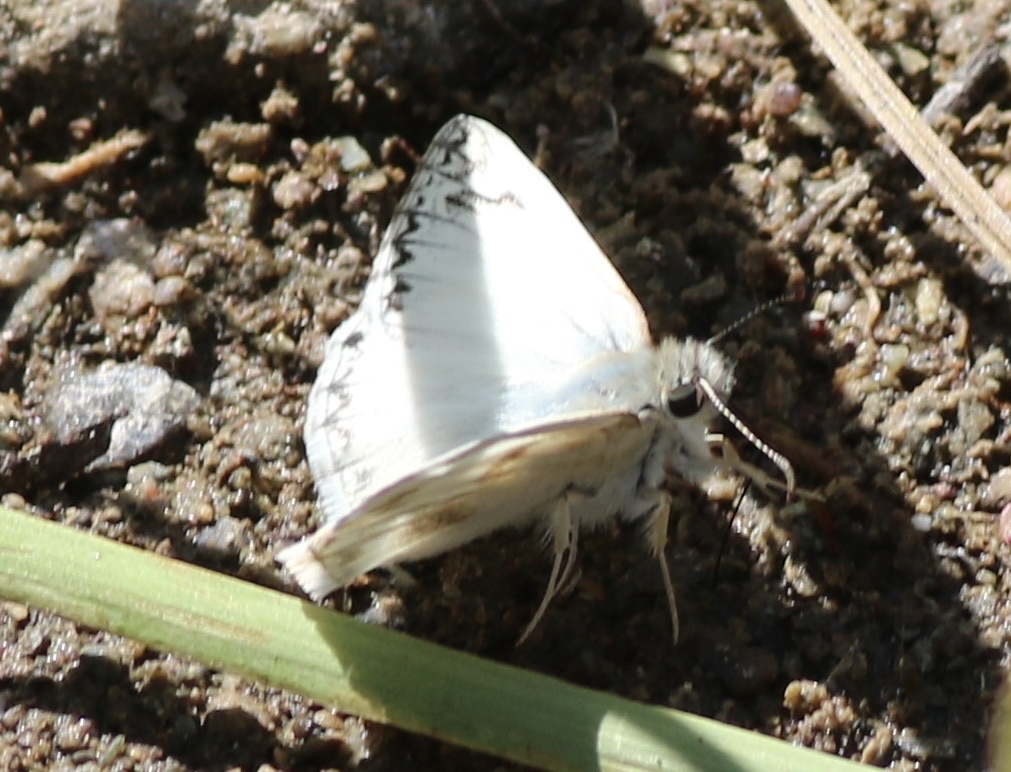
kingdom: Animalia
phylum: Arthropoda
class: Insecta
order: Lepidoptera
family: Hesperiidae
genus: Heliopetes
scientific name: Heliopetes ericetorum
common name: Northern white-skipper
